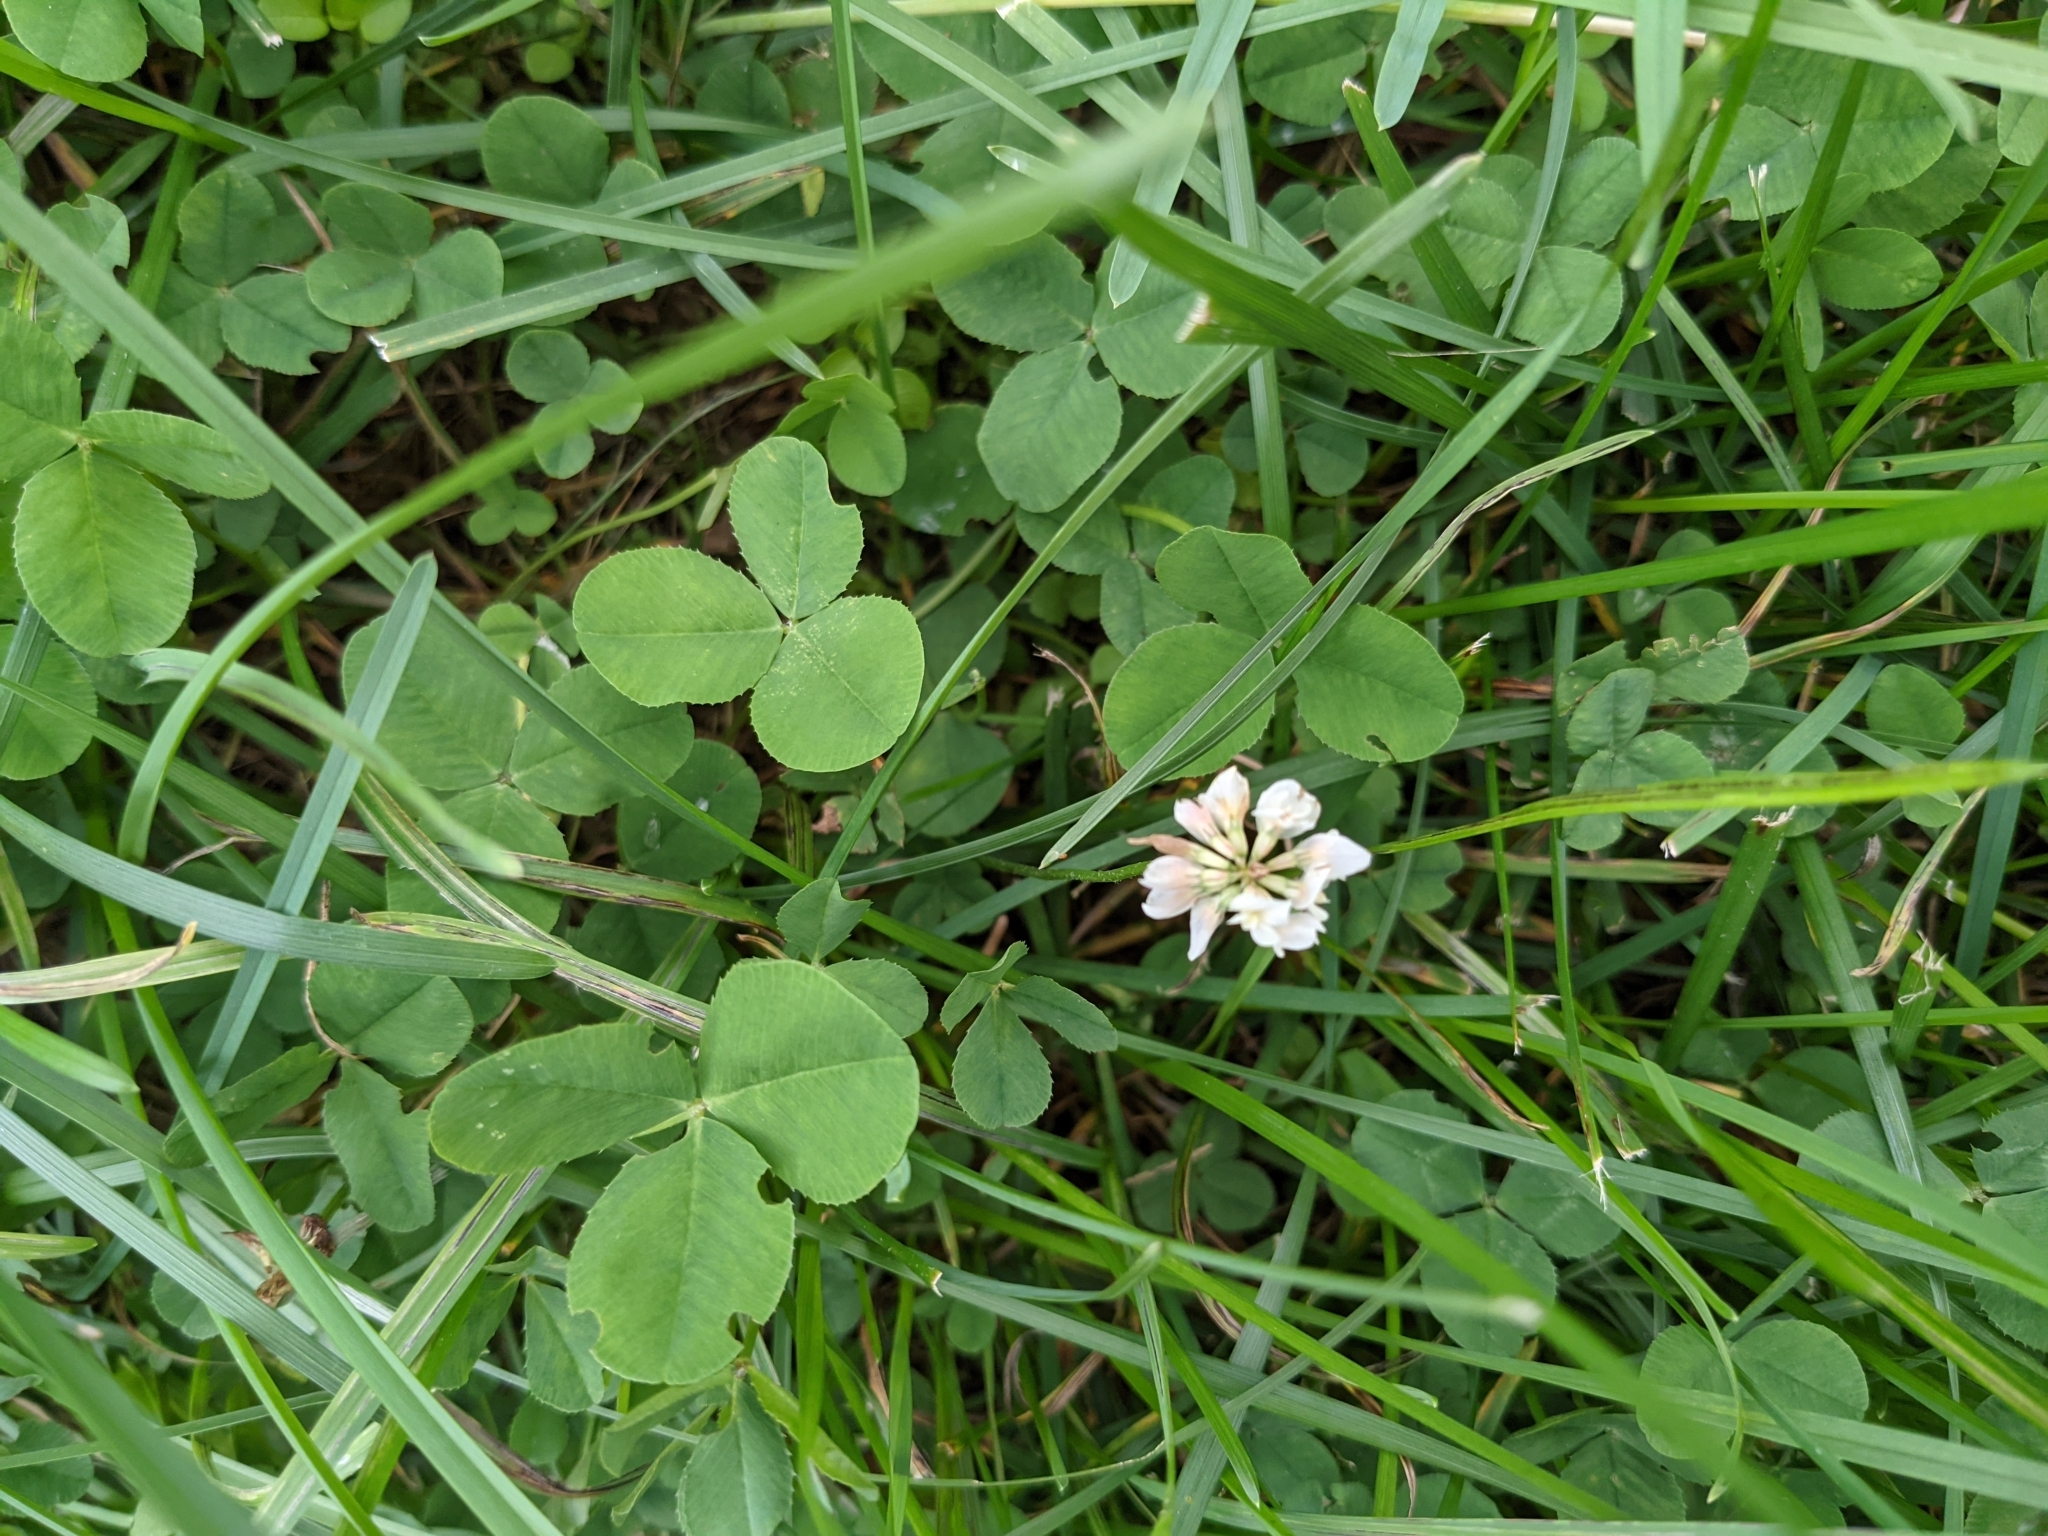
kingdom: Plantae
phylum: Tracheophyta
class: Magnoliopsida
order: Fabales
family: Fabaceae
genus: Trifolium
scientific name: Trifolium repens
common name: White clover
